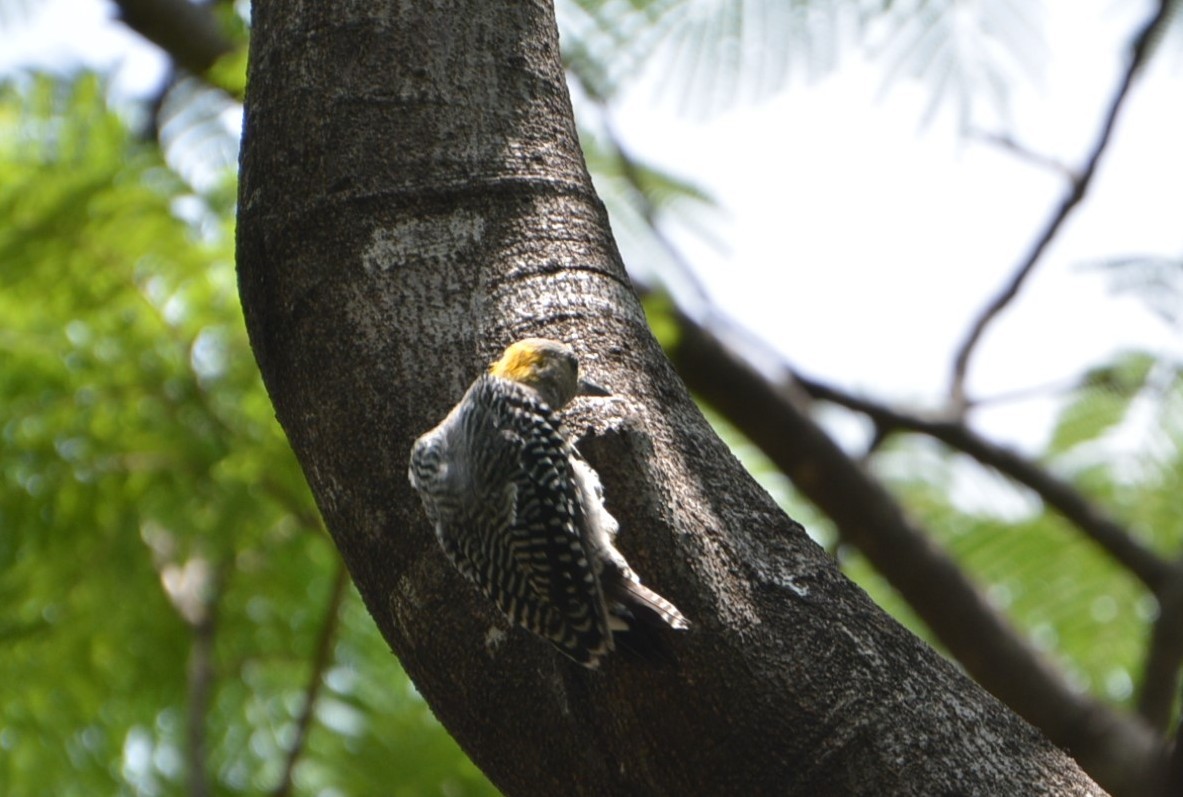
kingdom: Animalia
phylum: Chordata
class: Aves
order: Piciformes
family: Picidae
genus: Melanerpes
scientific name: Melanerpes aurifrons
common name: Golden-fronted woodpecker
